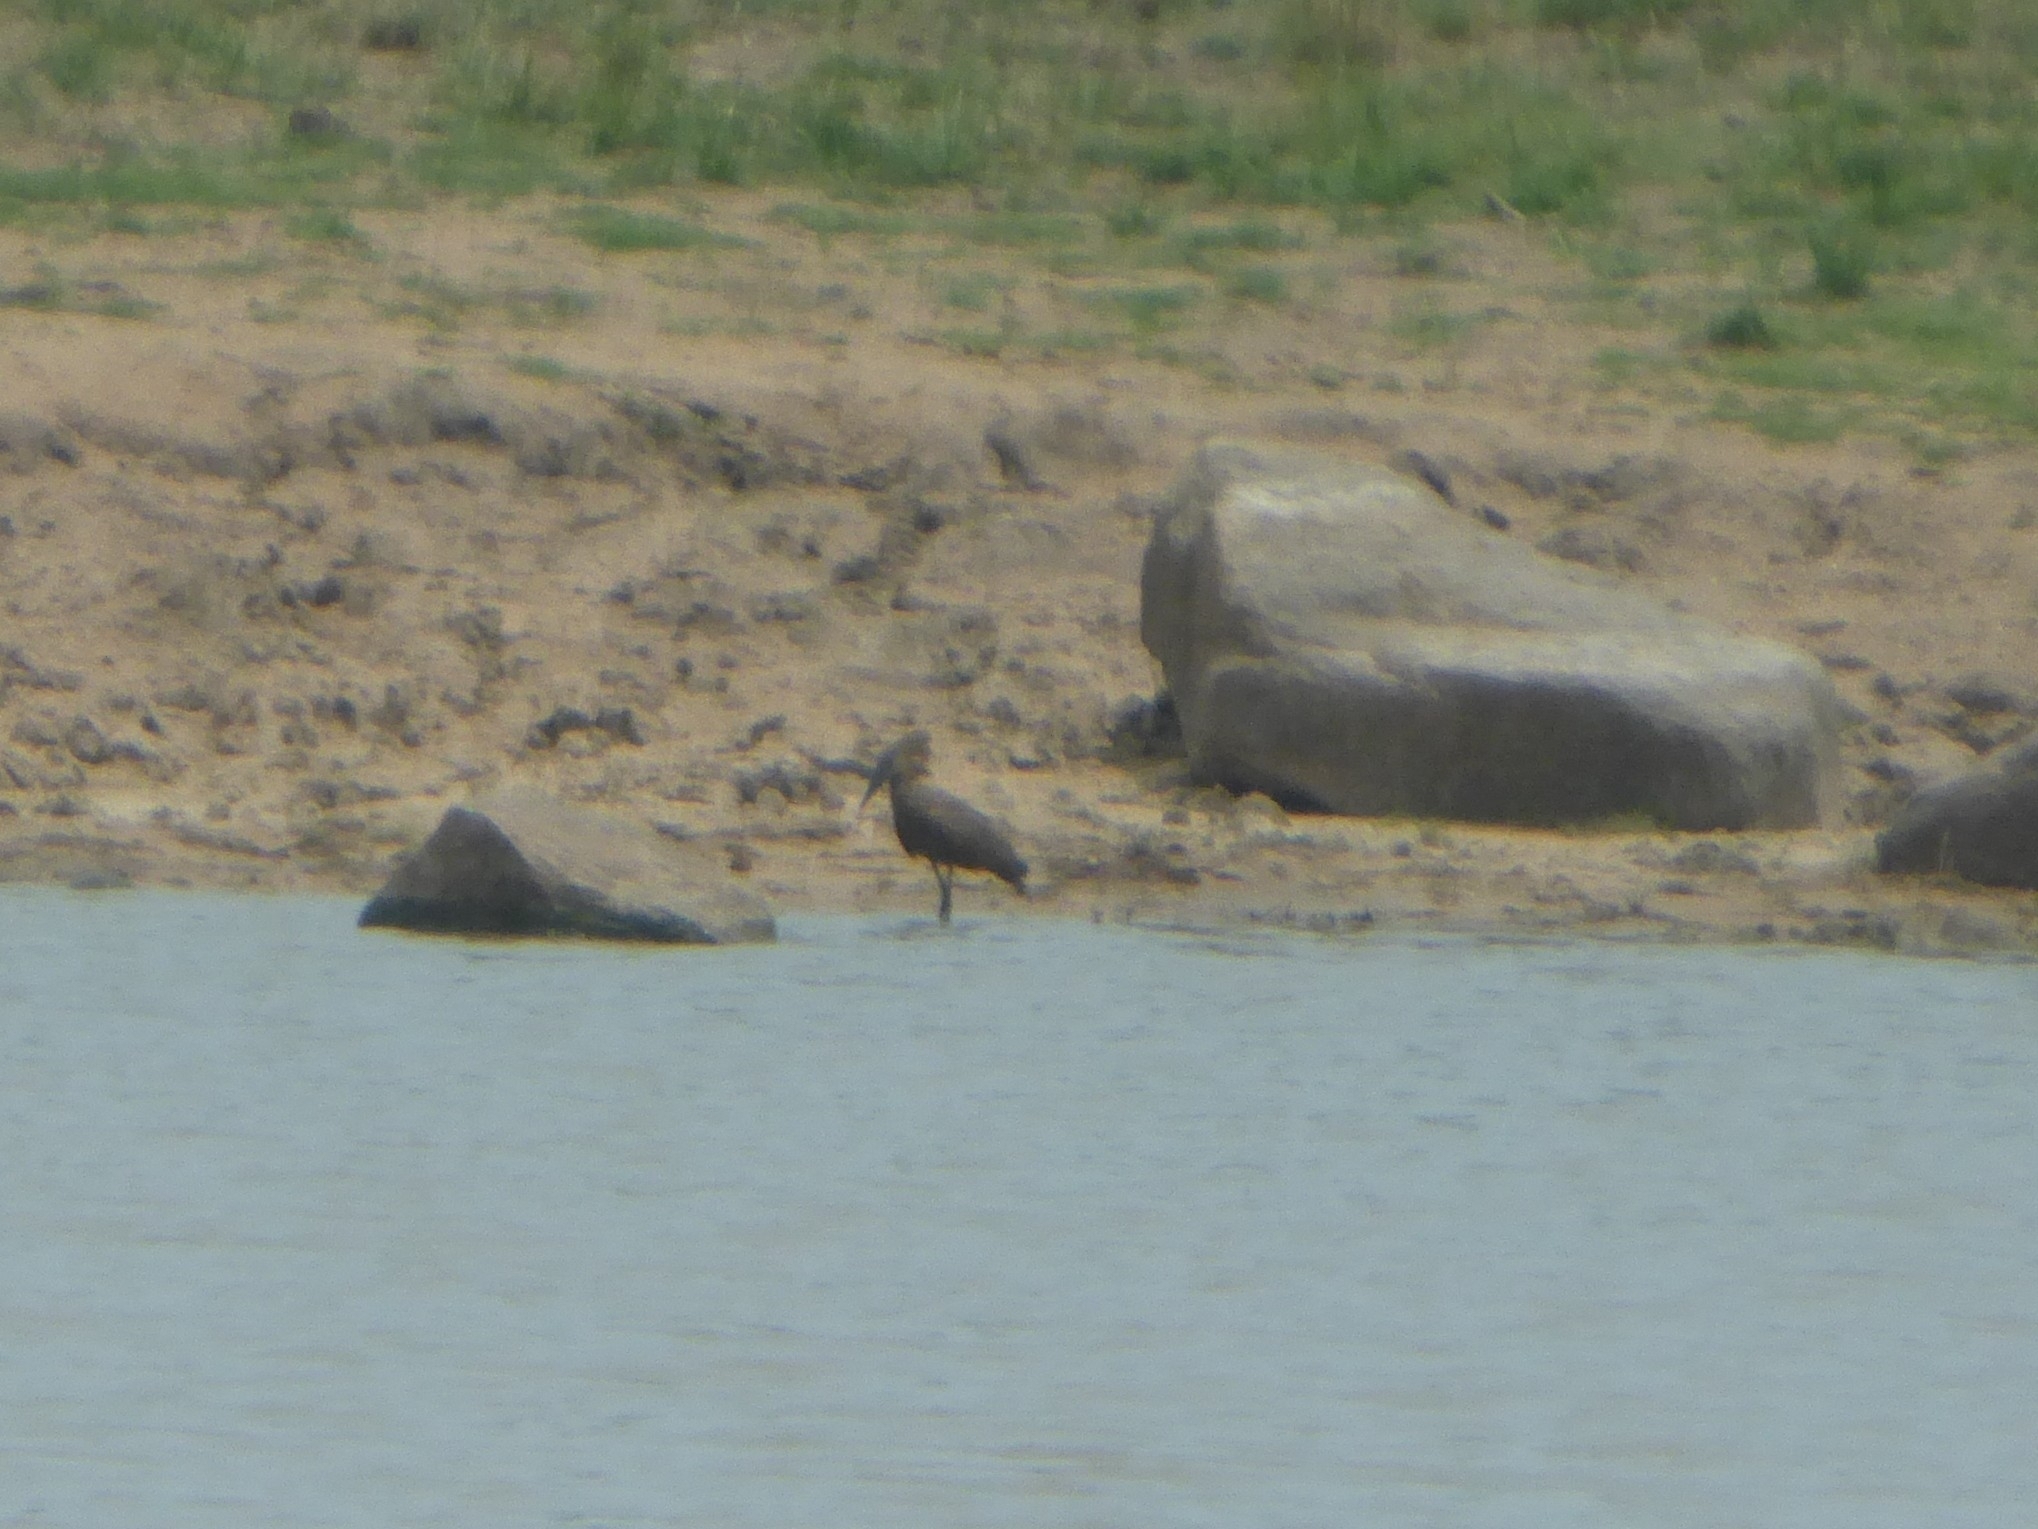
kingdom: Animalia
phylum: Chordata
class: Aves
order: Pelecaniformes
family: Scopidae
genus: Scopus
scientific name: Scopus umbretta
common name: Hamerkop
